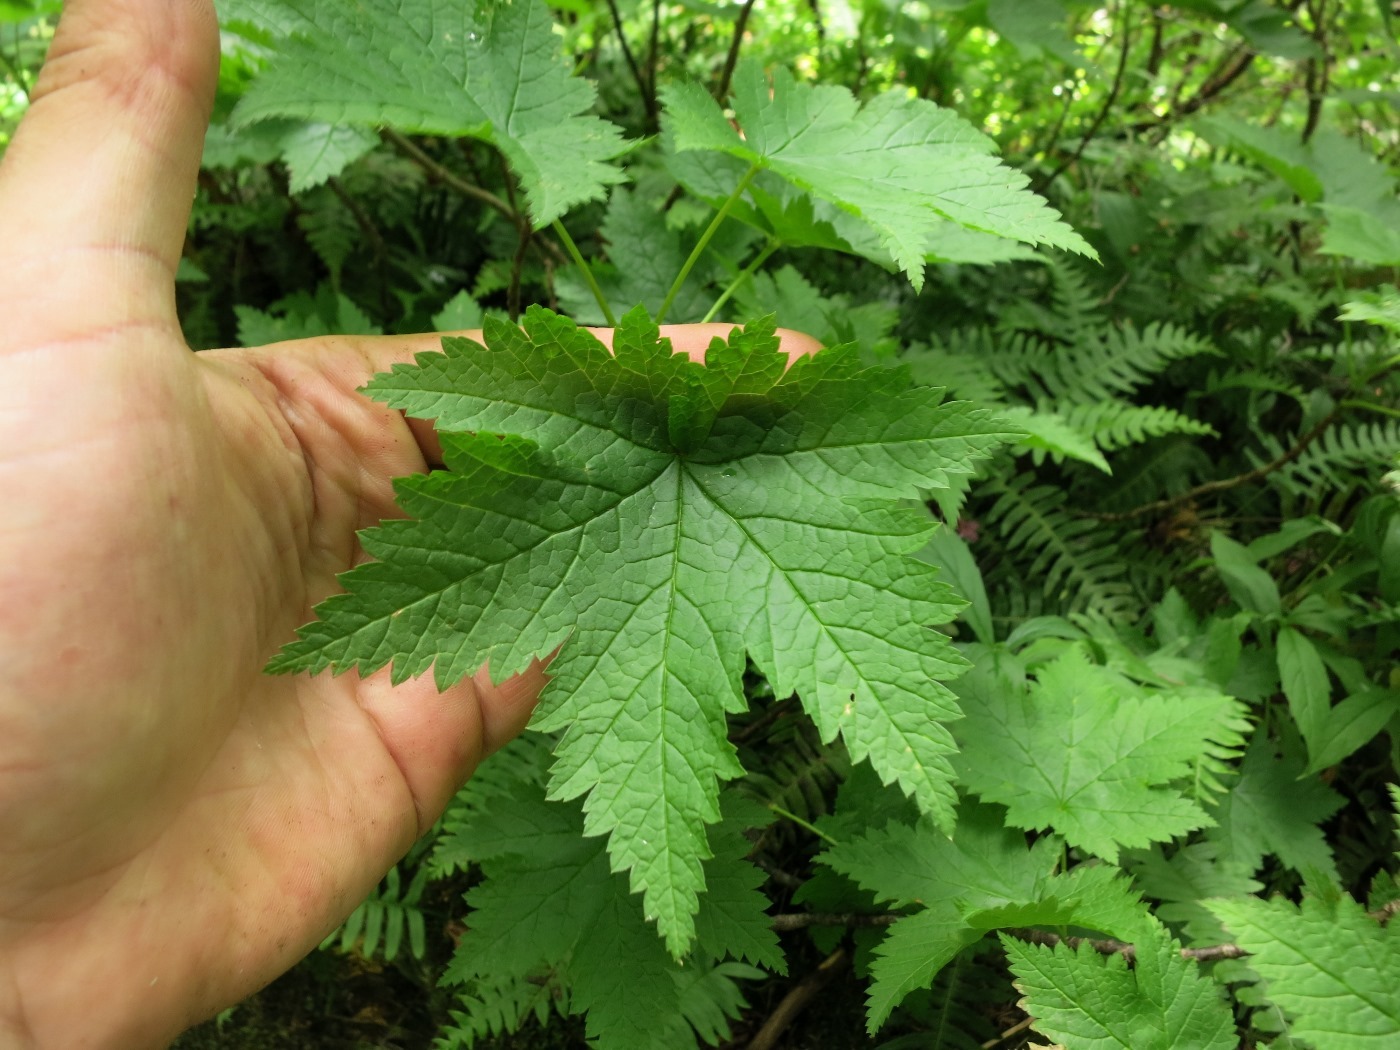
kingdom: Plantae
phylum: Tracheophyta
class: Magnoliopsida
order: Saxifragales
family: Grossulariaceae
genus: Ribes
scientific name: Ribes glandulosum
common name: Skunk currant
